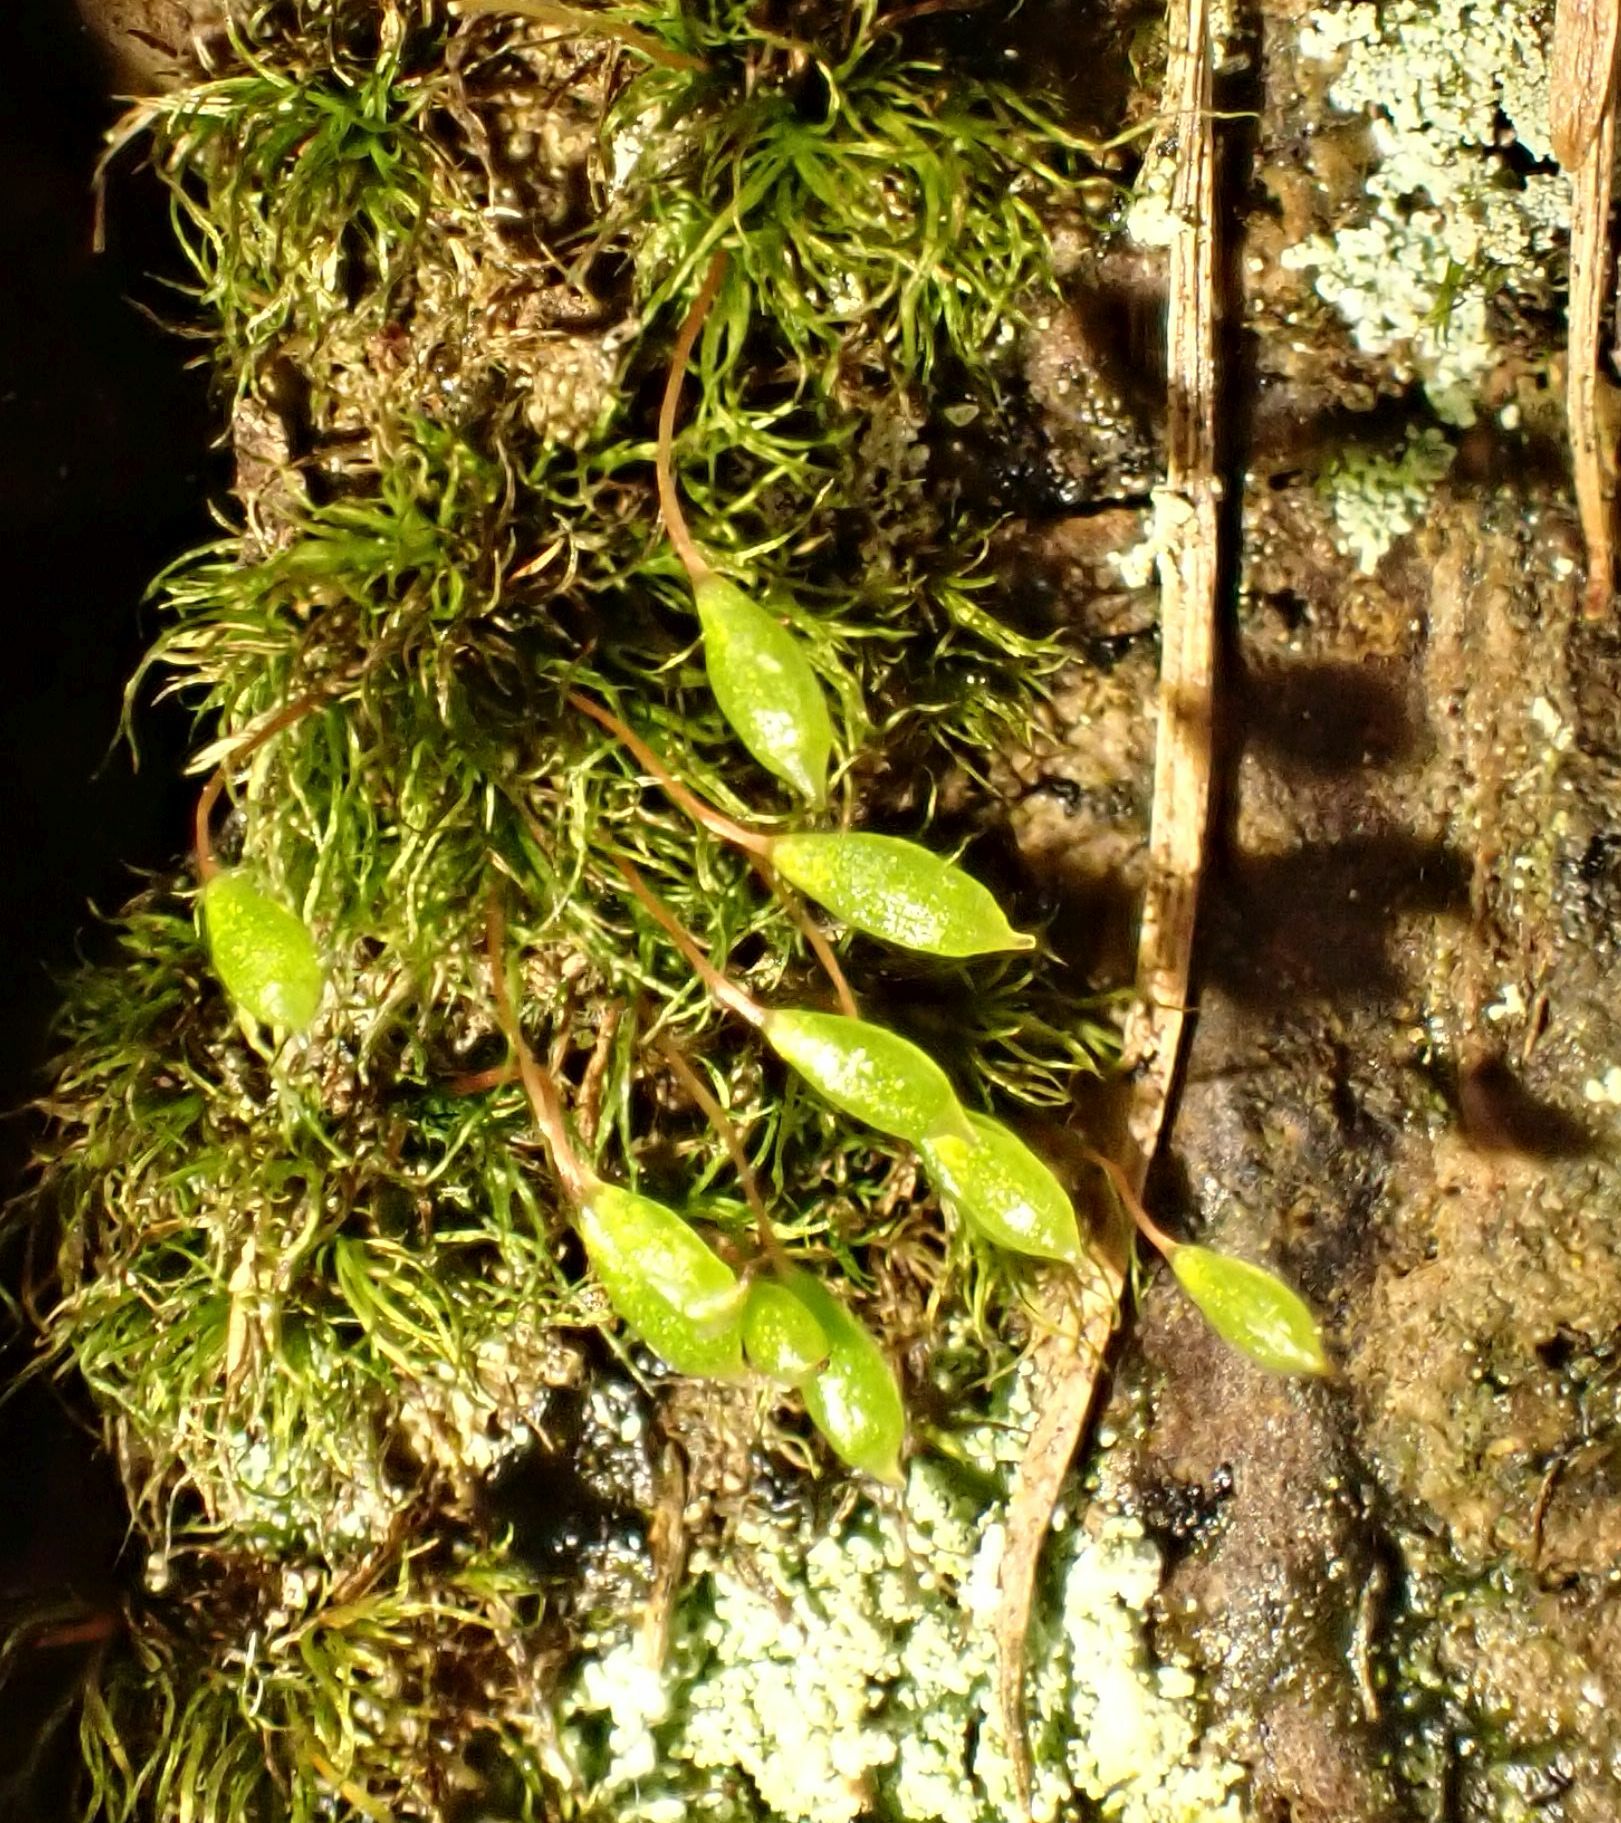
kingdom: Plantae
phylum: Bryophyta
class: Bryopsida
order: Orthodontiales
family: Orthodontiaceae
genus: Orthodontium
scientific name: Orthodontium lineare
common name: Cape thread-moss
